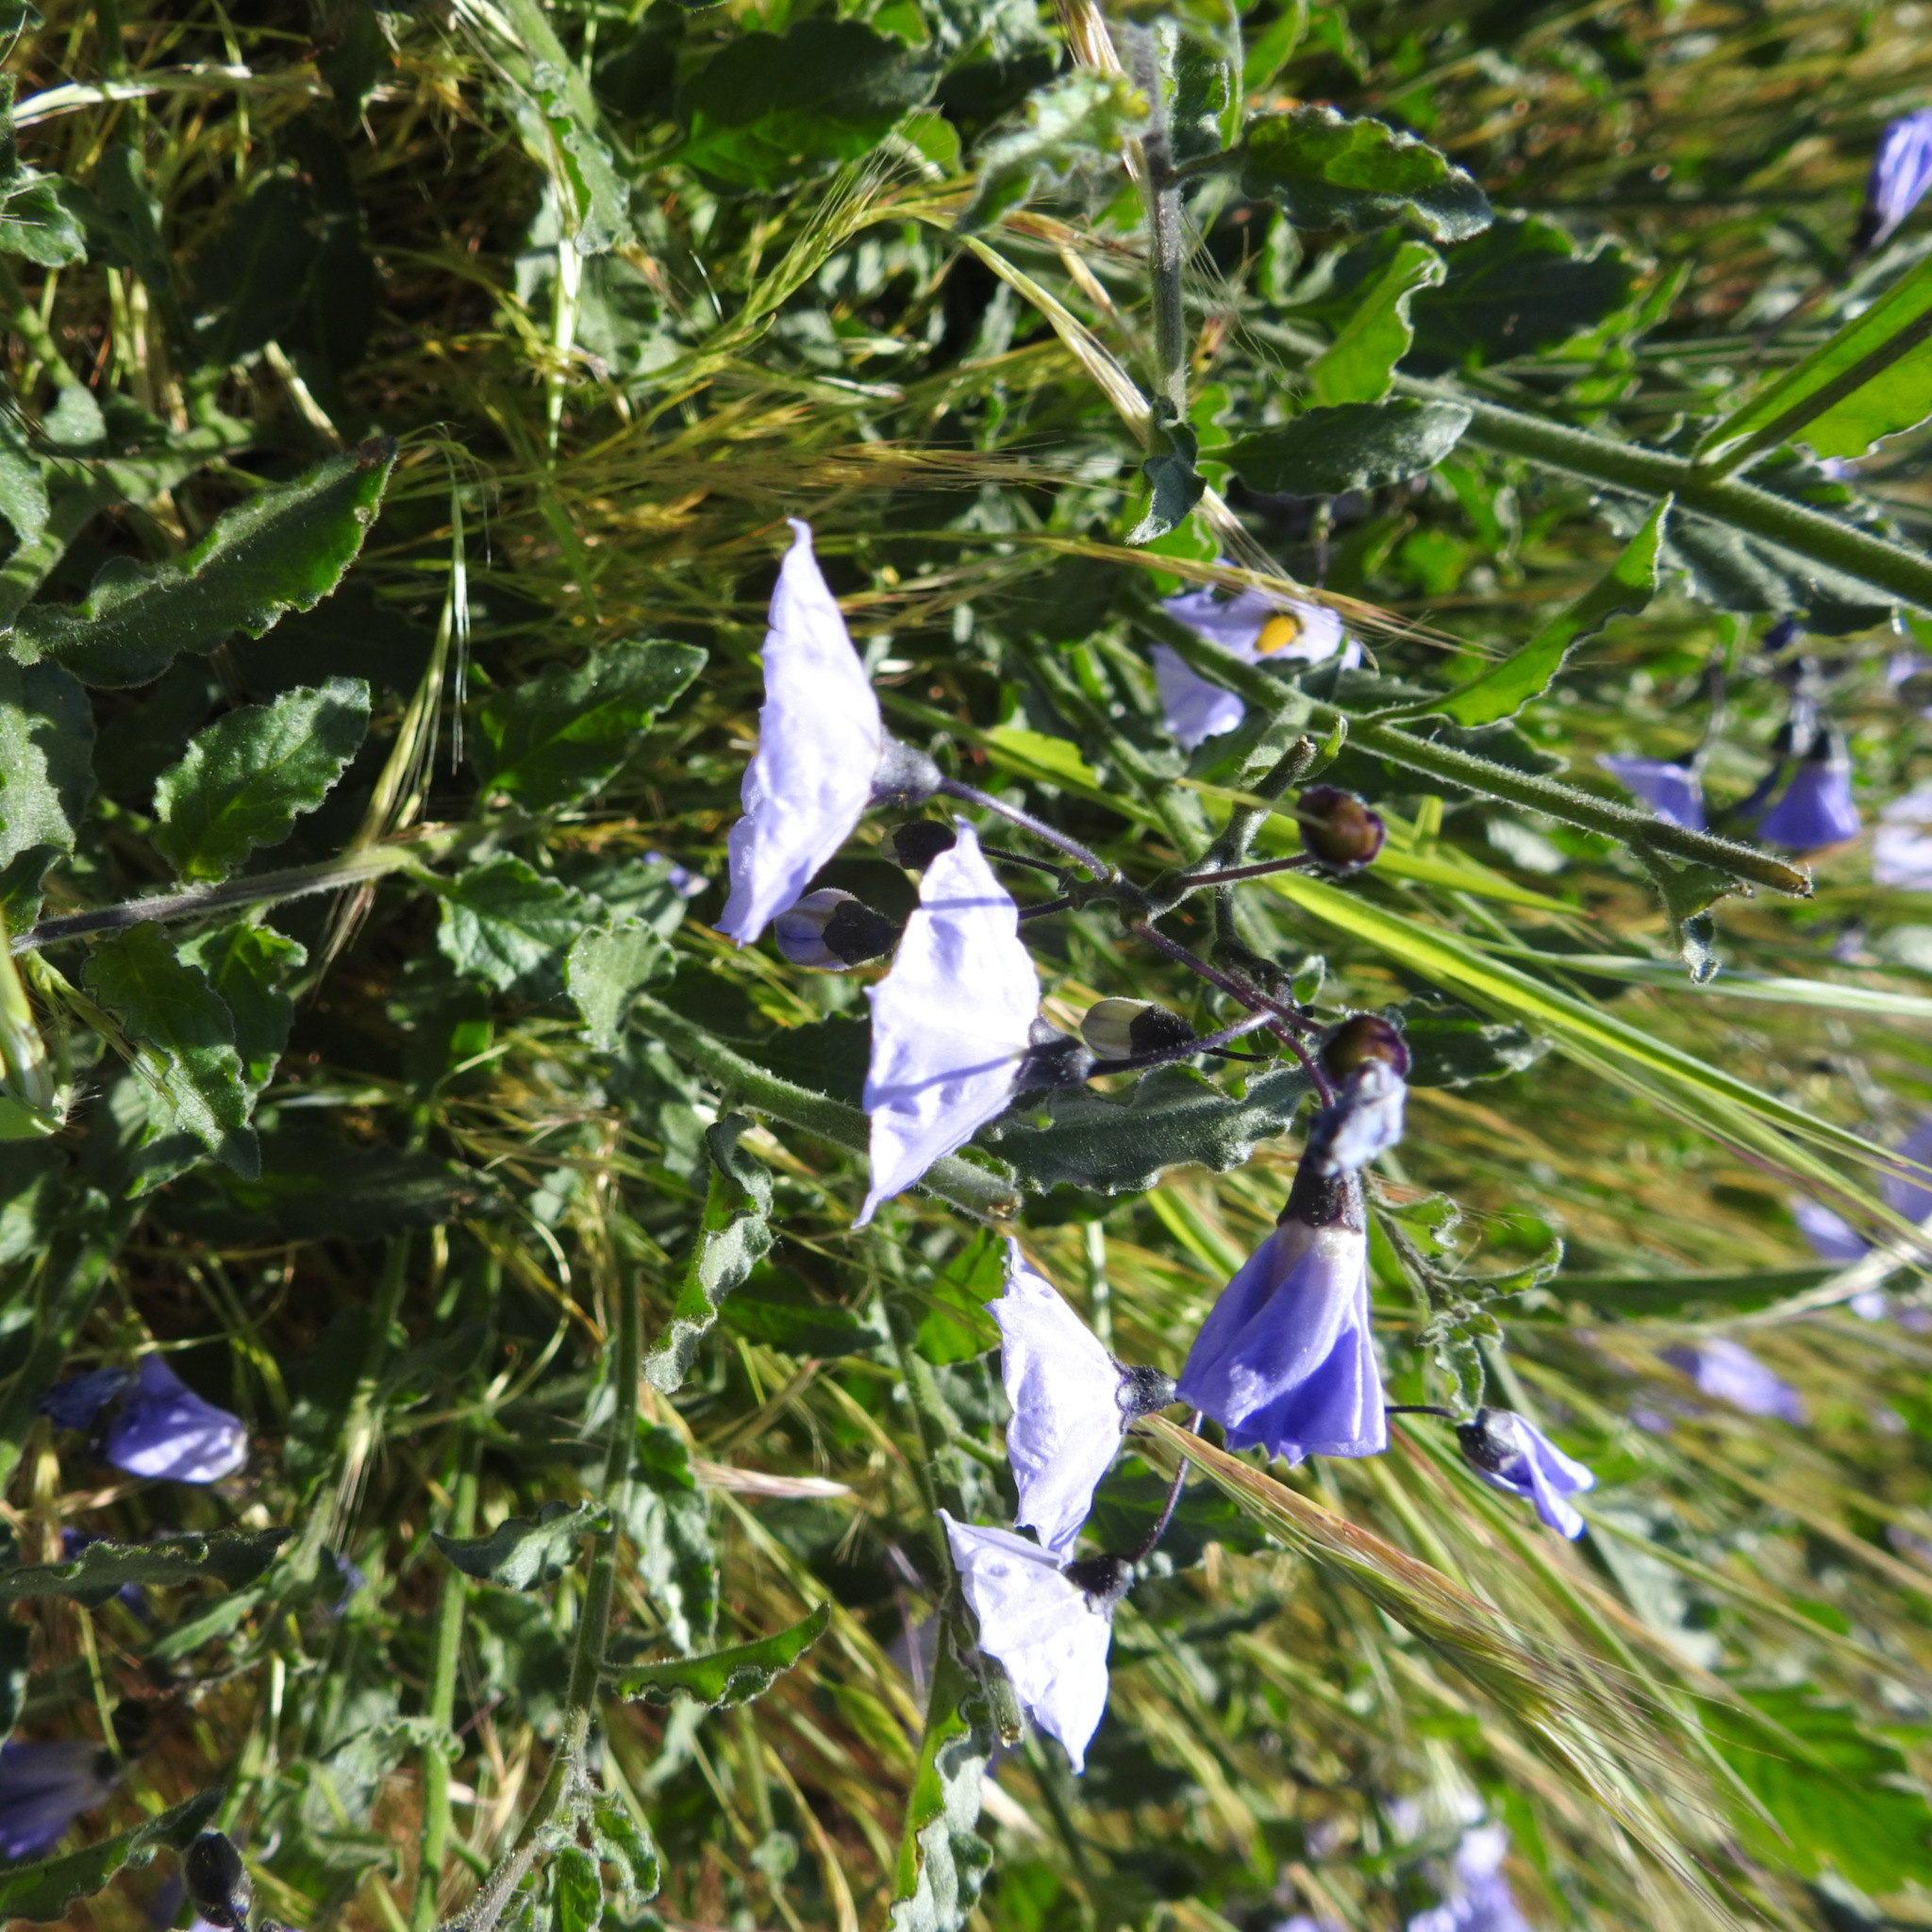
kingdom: Plantae
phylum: Tracheophyta
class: Magnoliopsida
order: Solanales
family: Solanaceae
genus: Solanum
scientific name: Solanum umbelliferum
